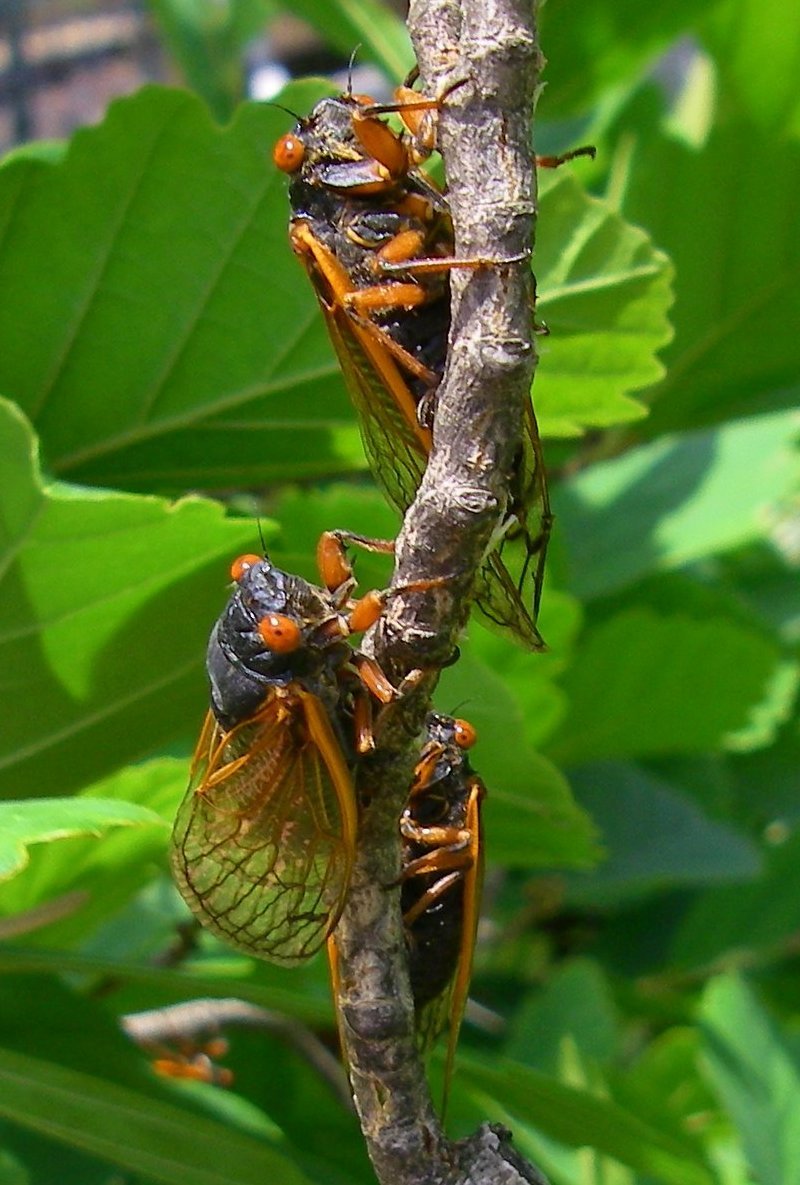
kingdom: Animalia
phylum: Arthropoda
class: Insecta
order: Hemiptera
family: Cicadidae
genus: Magicicada
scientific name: Magicicada cassini
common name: Cassin's 17-year cicada
